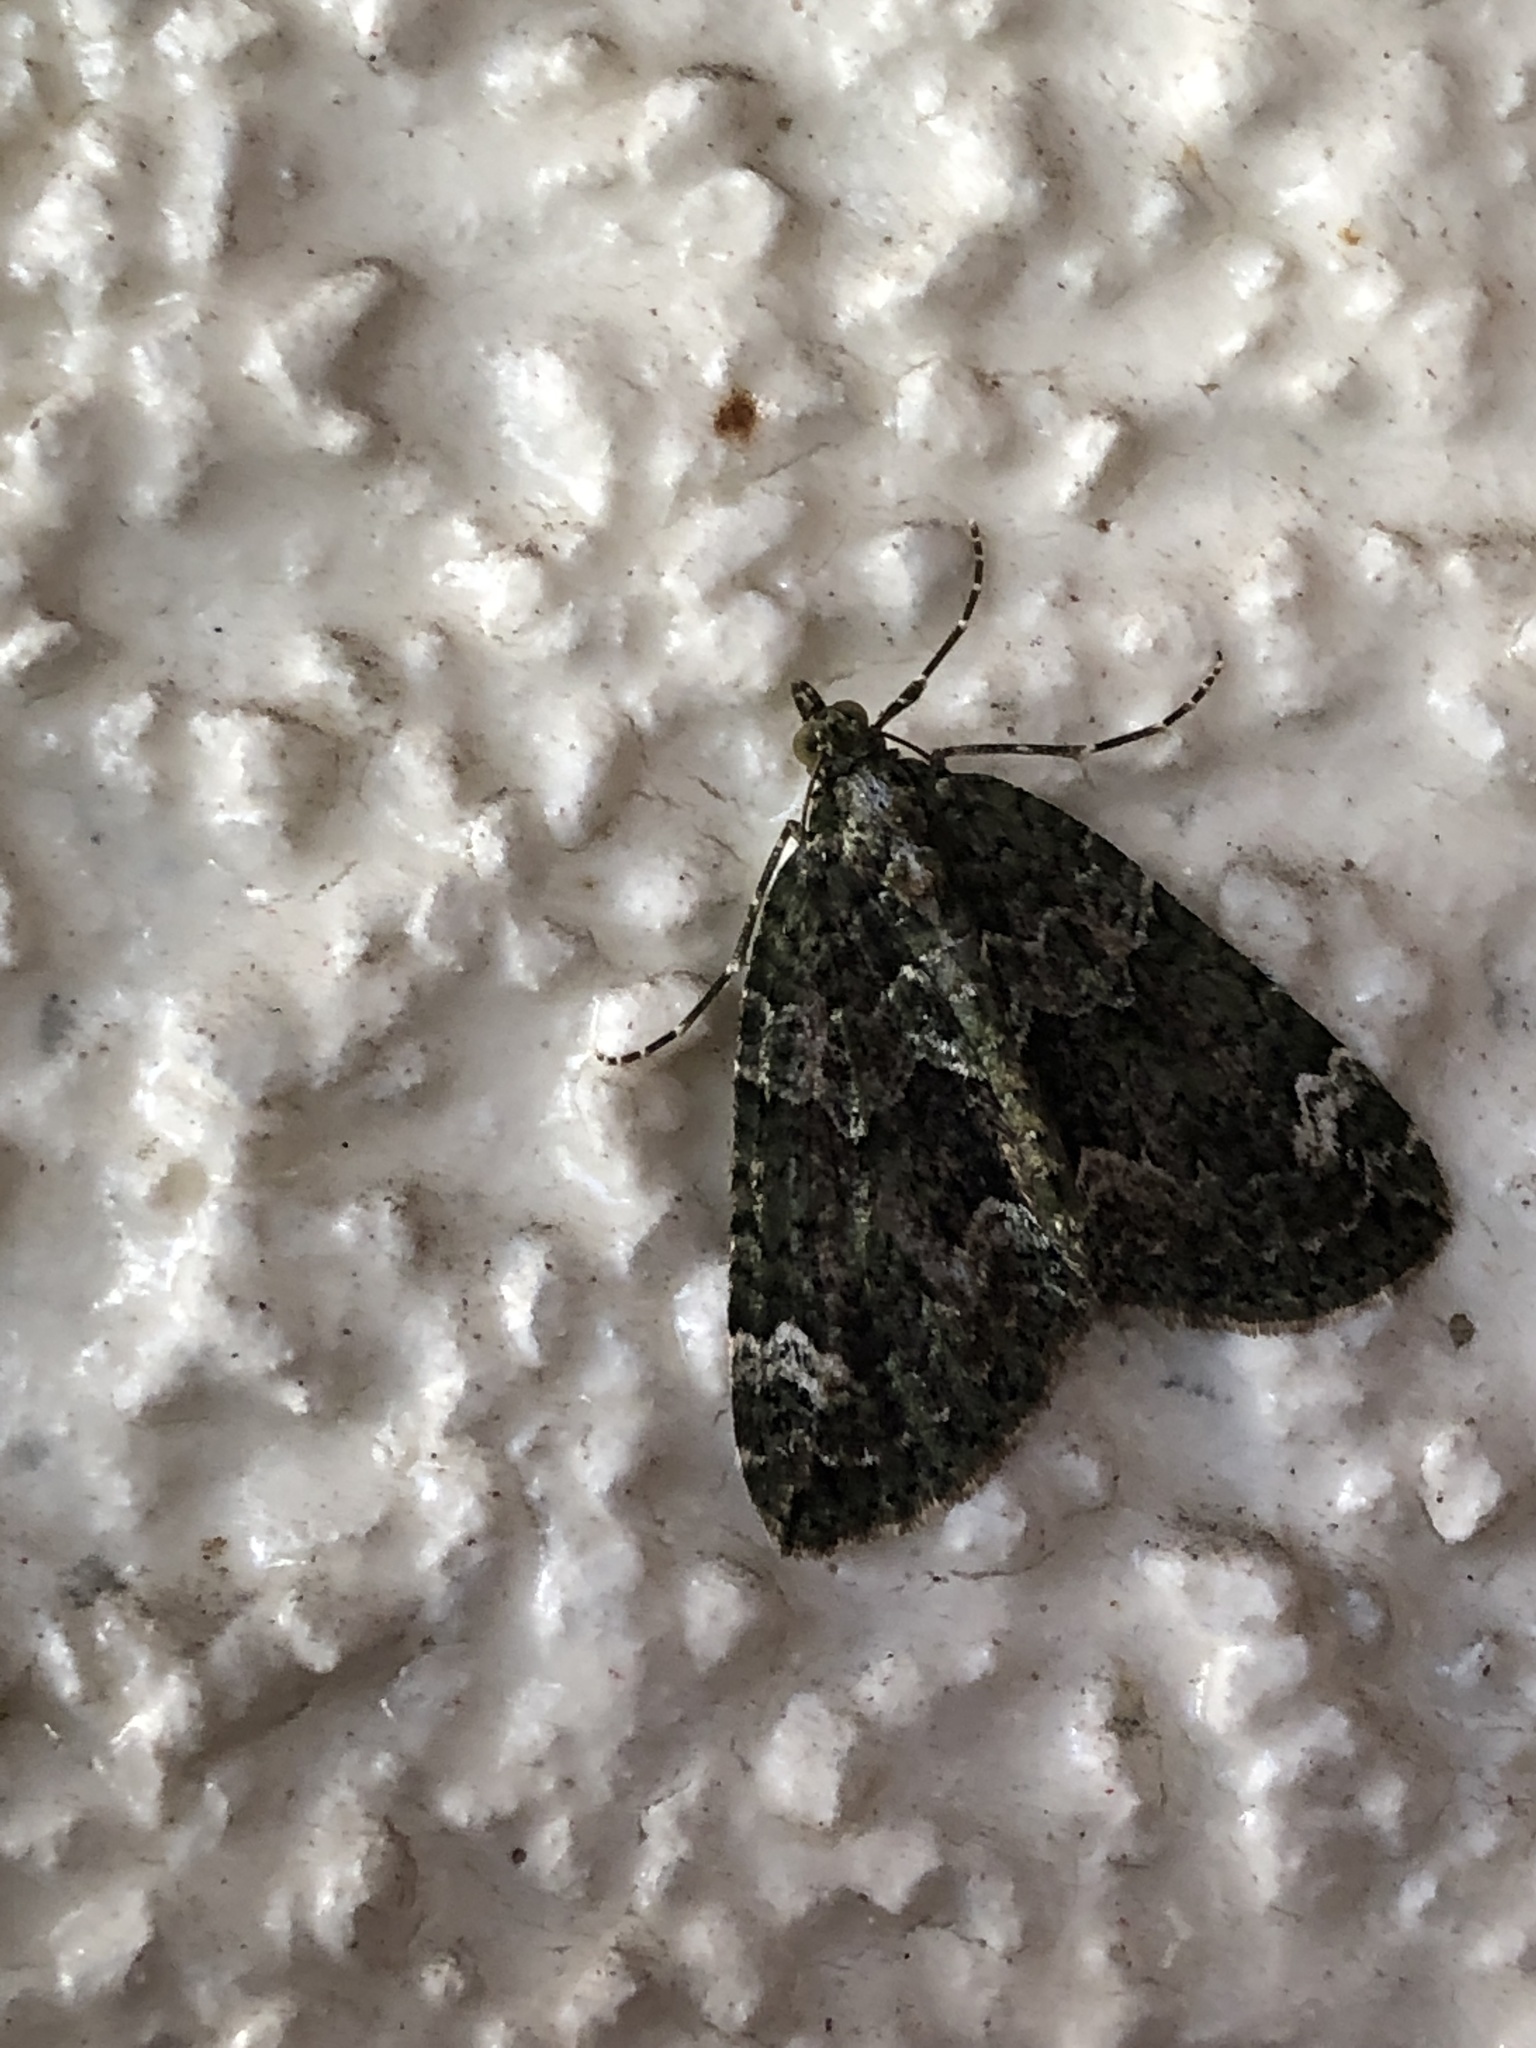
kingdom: Animalia
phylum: Arthropoda
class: Insecta
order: Lepidoptera
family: Geometridae
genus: Chloroclysta
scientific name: Chloroclysta siterata
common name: Red-green carpet
